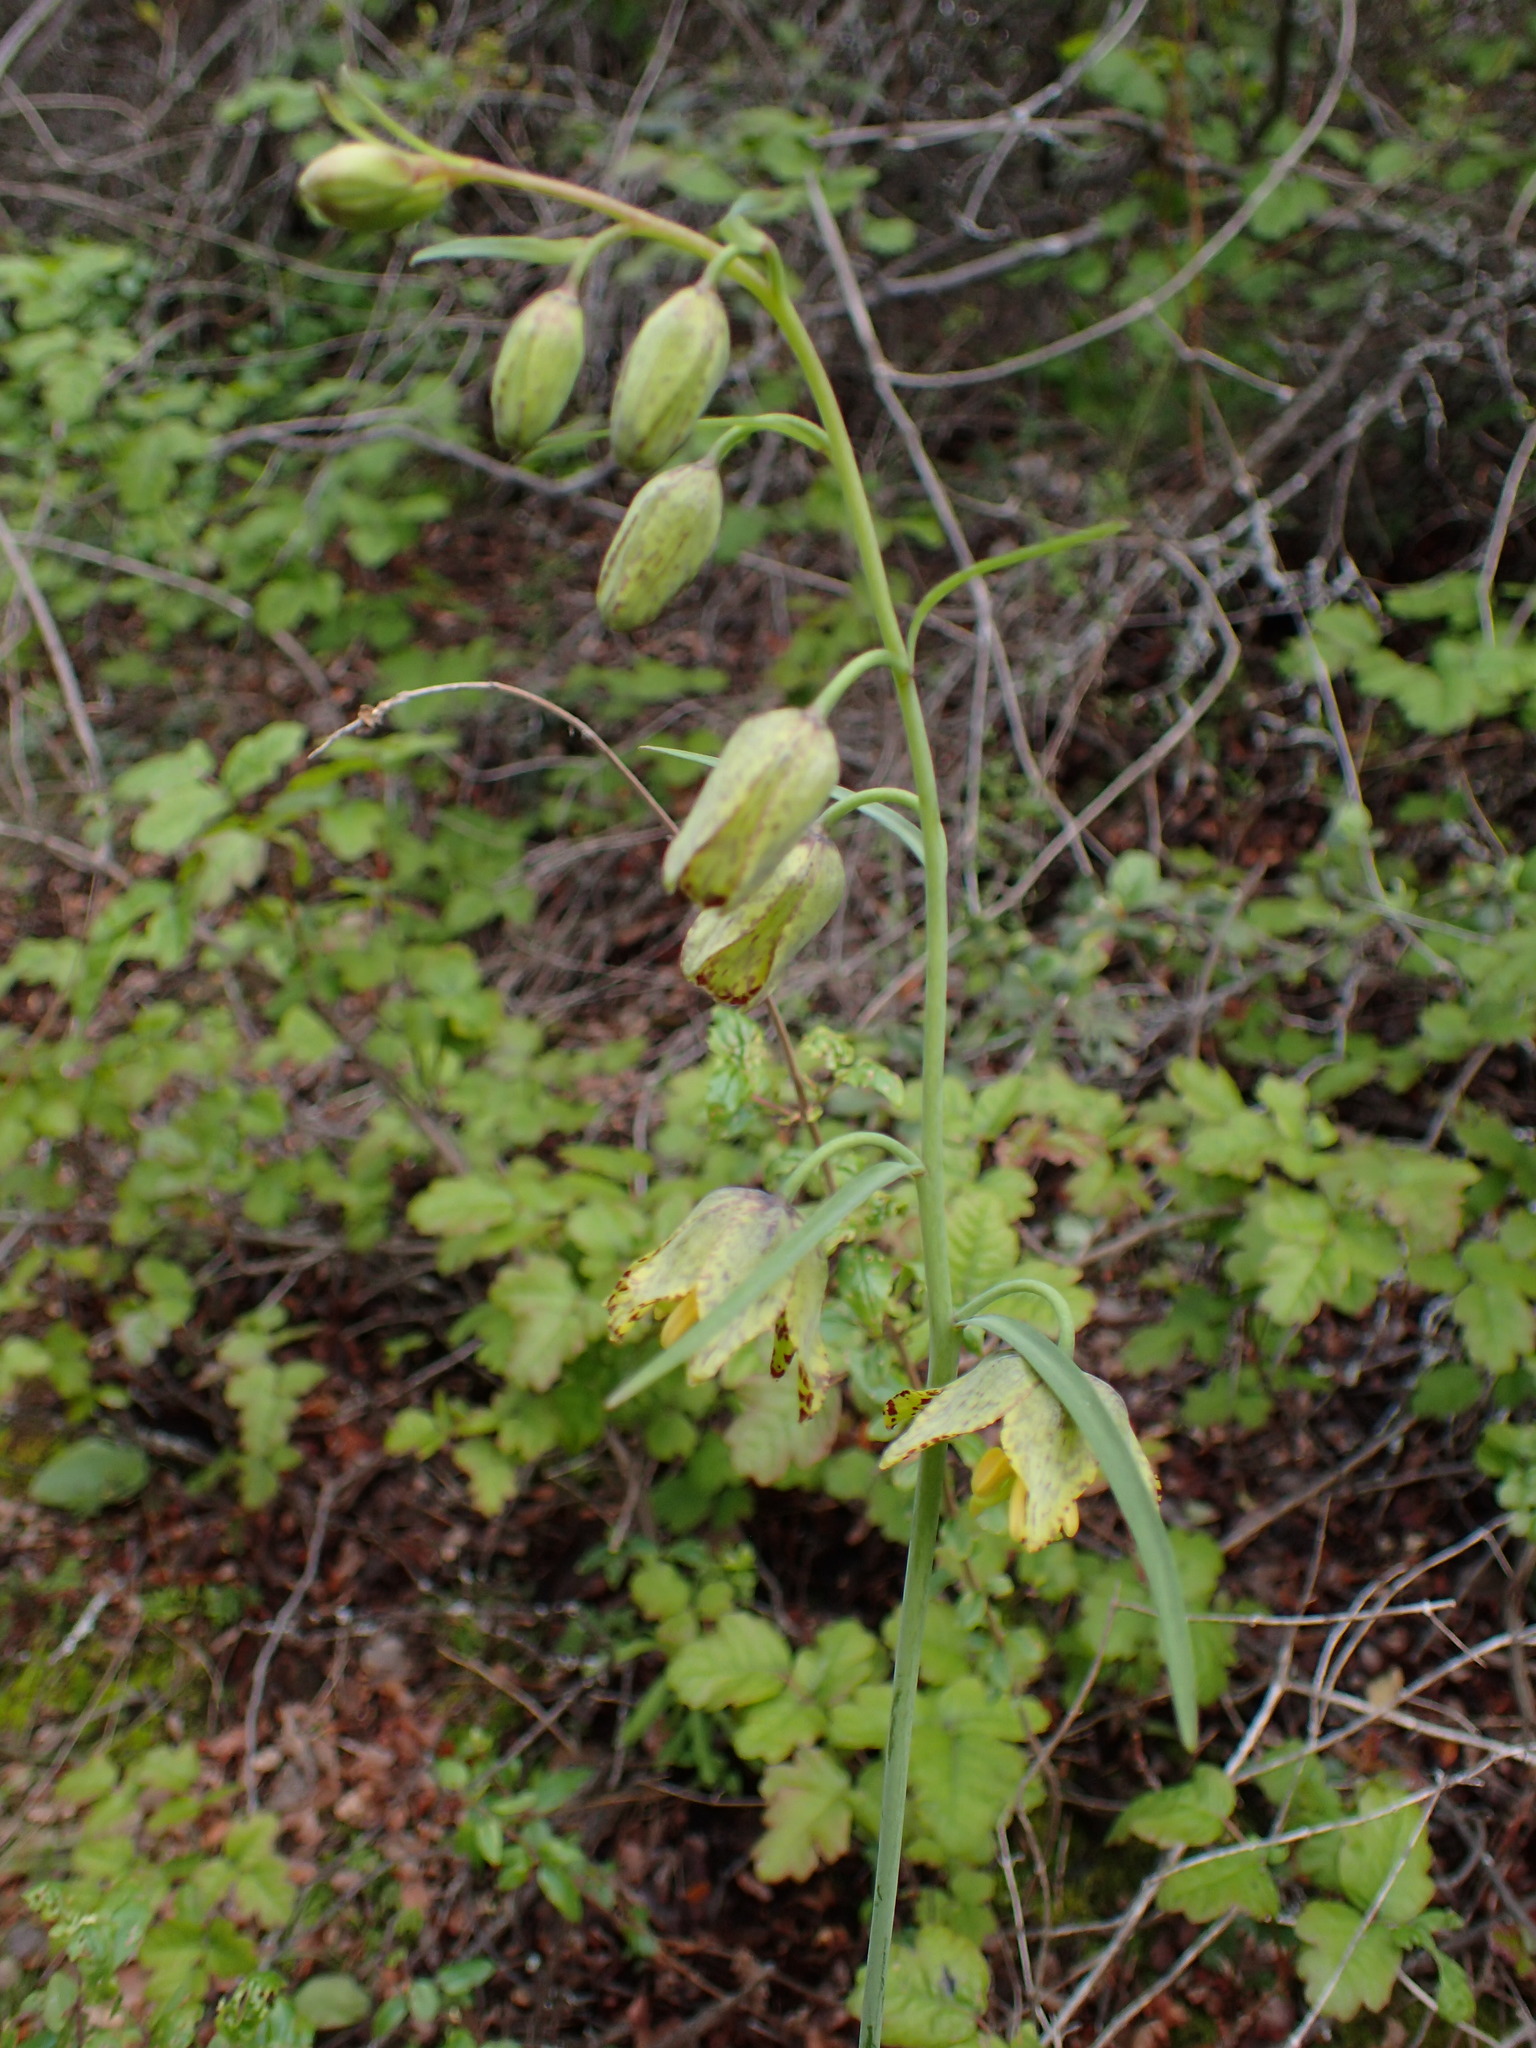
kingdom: Plantae
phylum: Tracheophyta
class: Liliopsida
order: Liliales
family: Liliaceae
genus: Fritillaria
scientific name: Fritillaria ojaiensis
